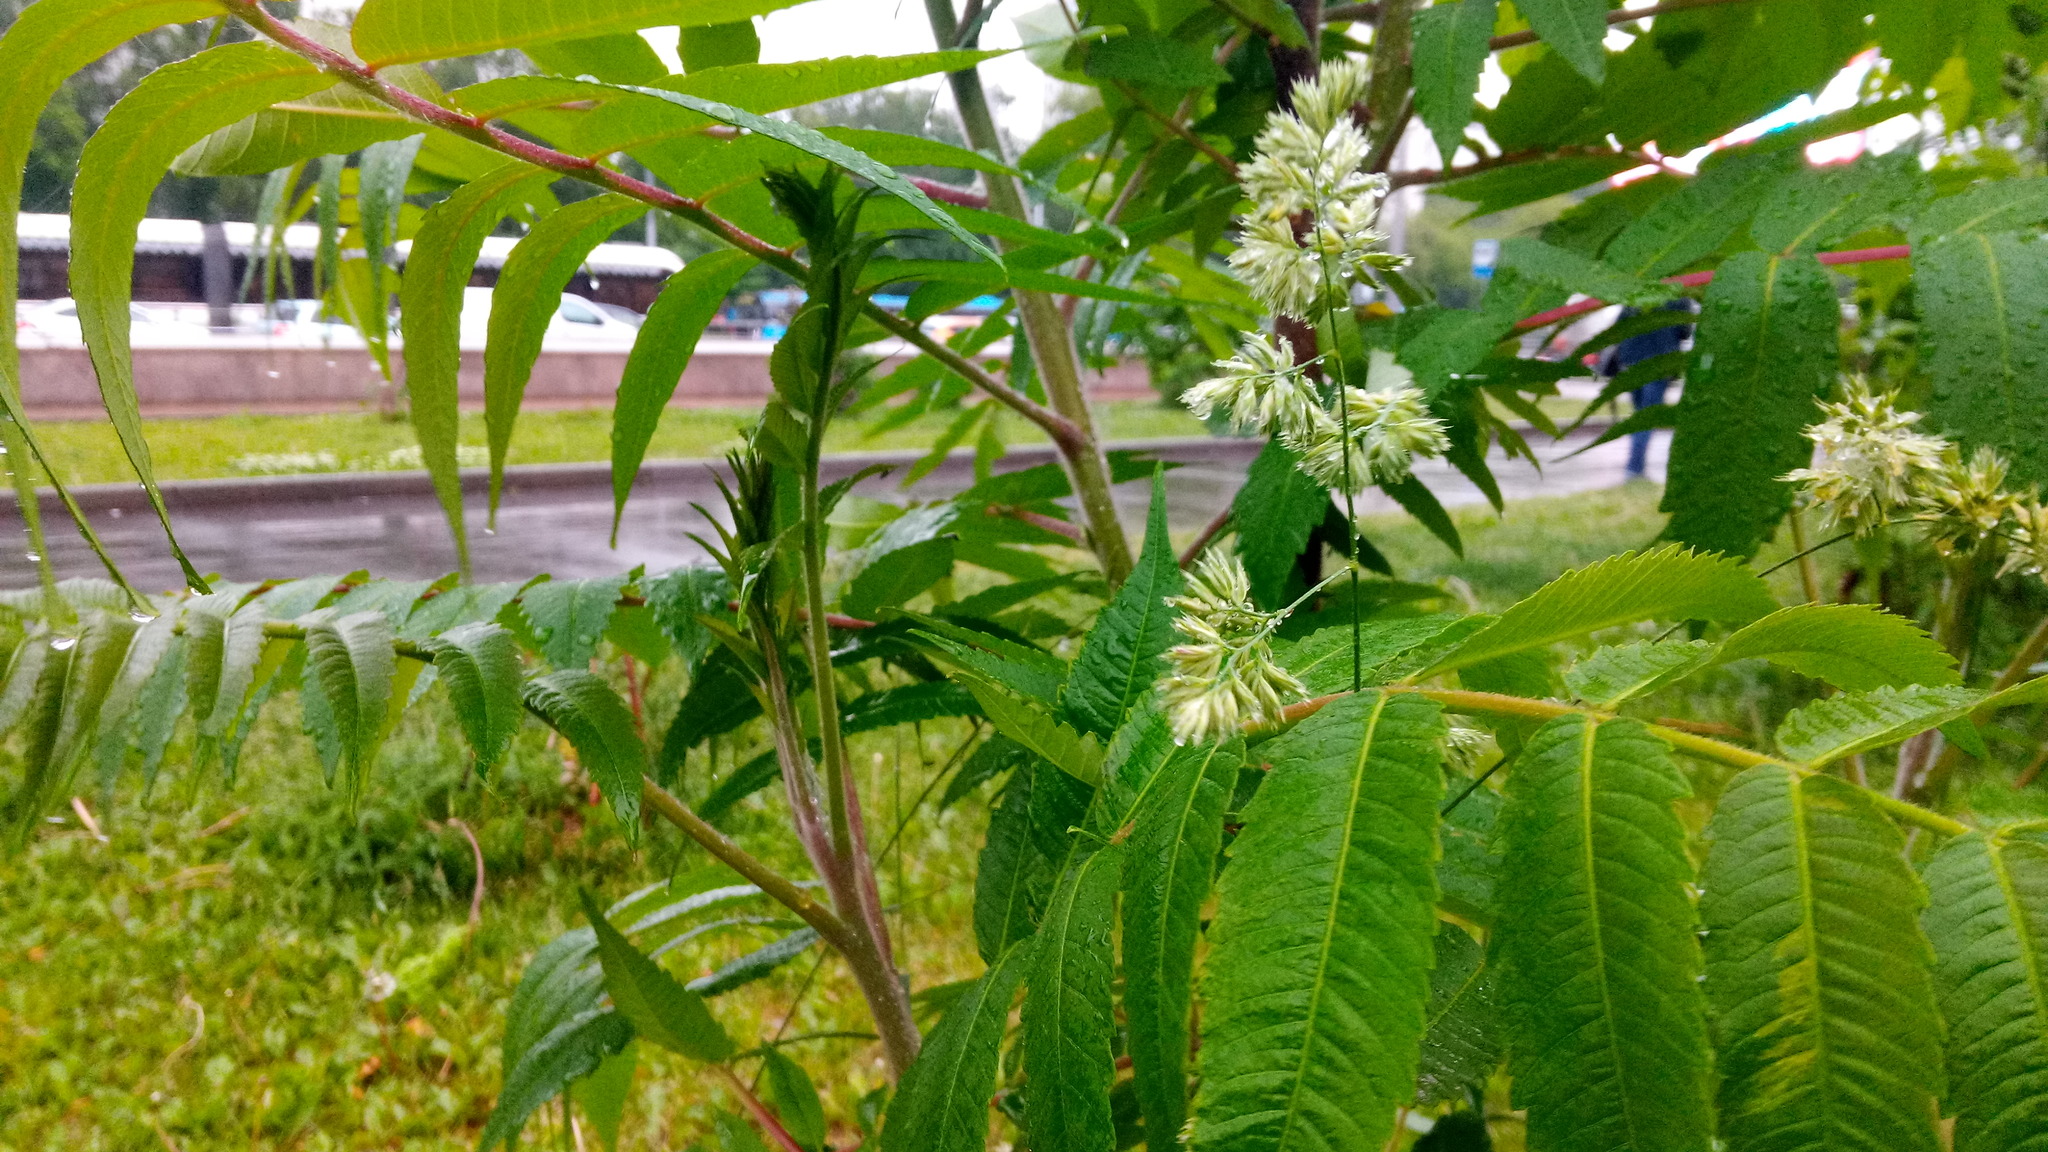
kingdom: Plantae
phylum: Tracheophyta
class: Liliopsida
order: Poales
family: Poaceae
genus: Dactylis
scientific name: Dactylis glomerata
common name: Orchardgrass
